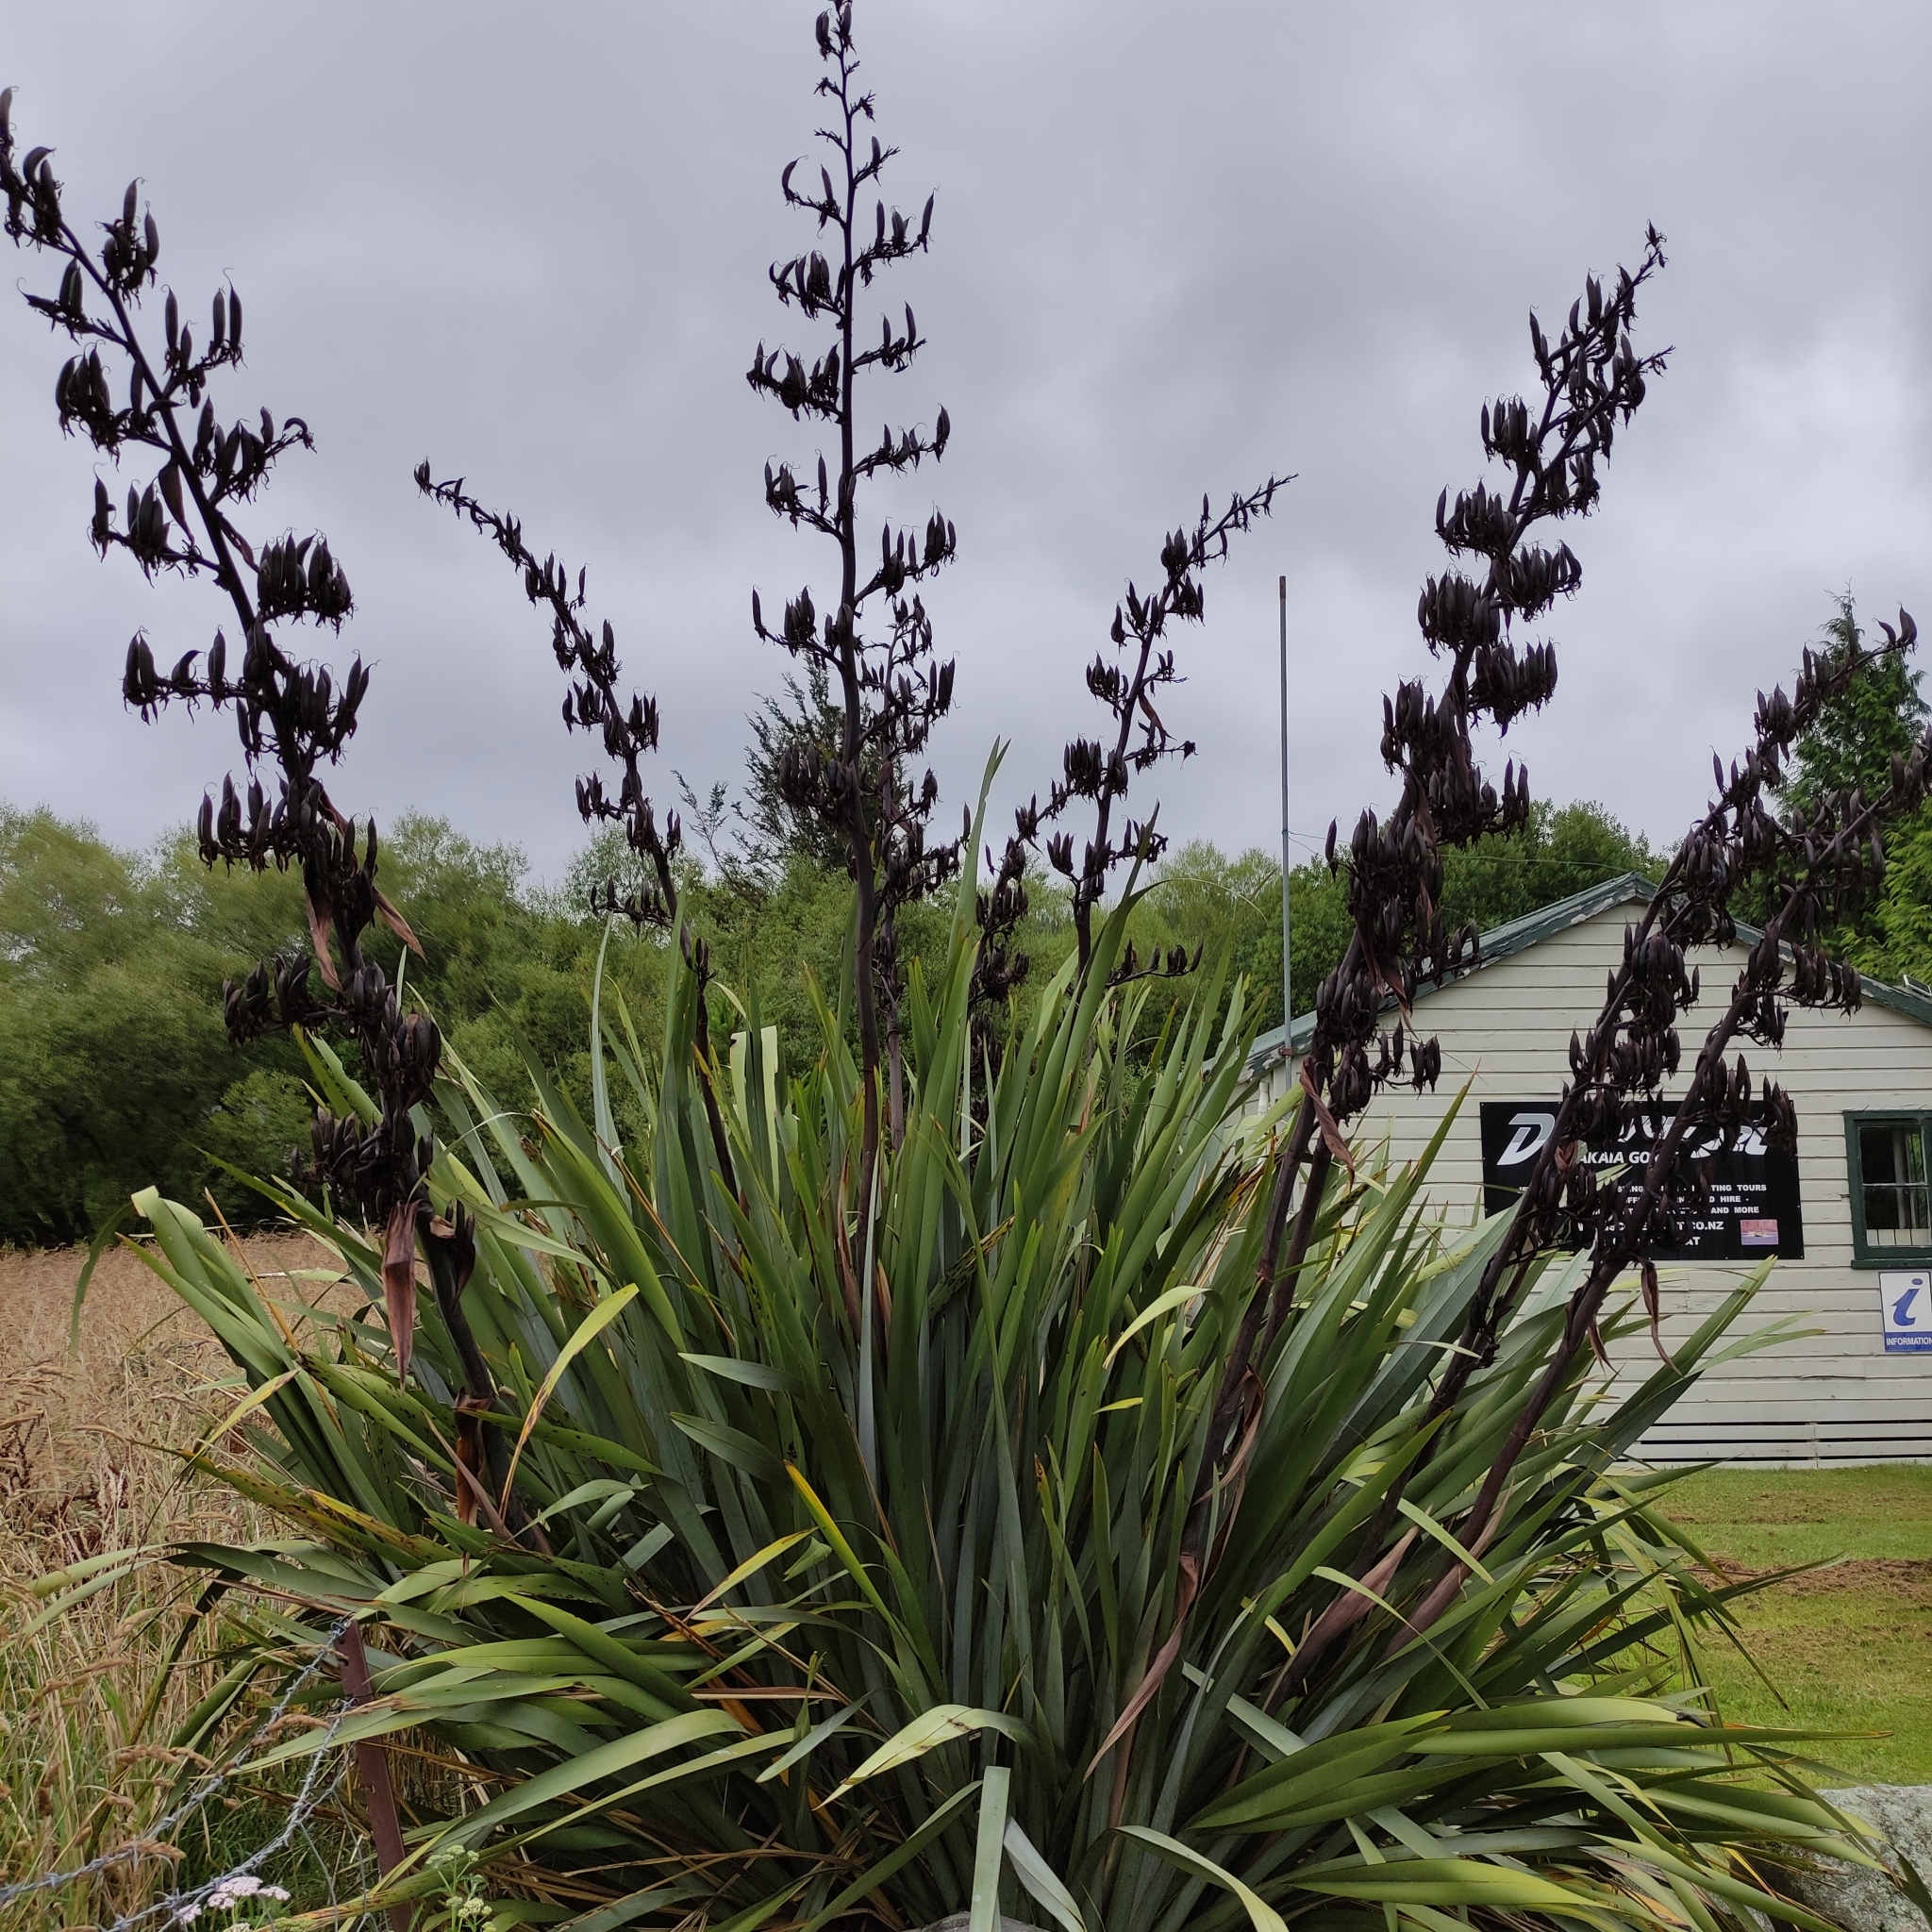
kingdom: Plantae
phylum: Tracheophyta
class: Liliopsida
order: Asparagales
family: Asphodelaceae
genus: Phormium
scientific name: Phormium tenax
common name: New zealand flax
